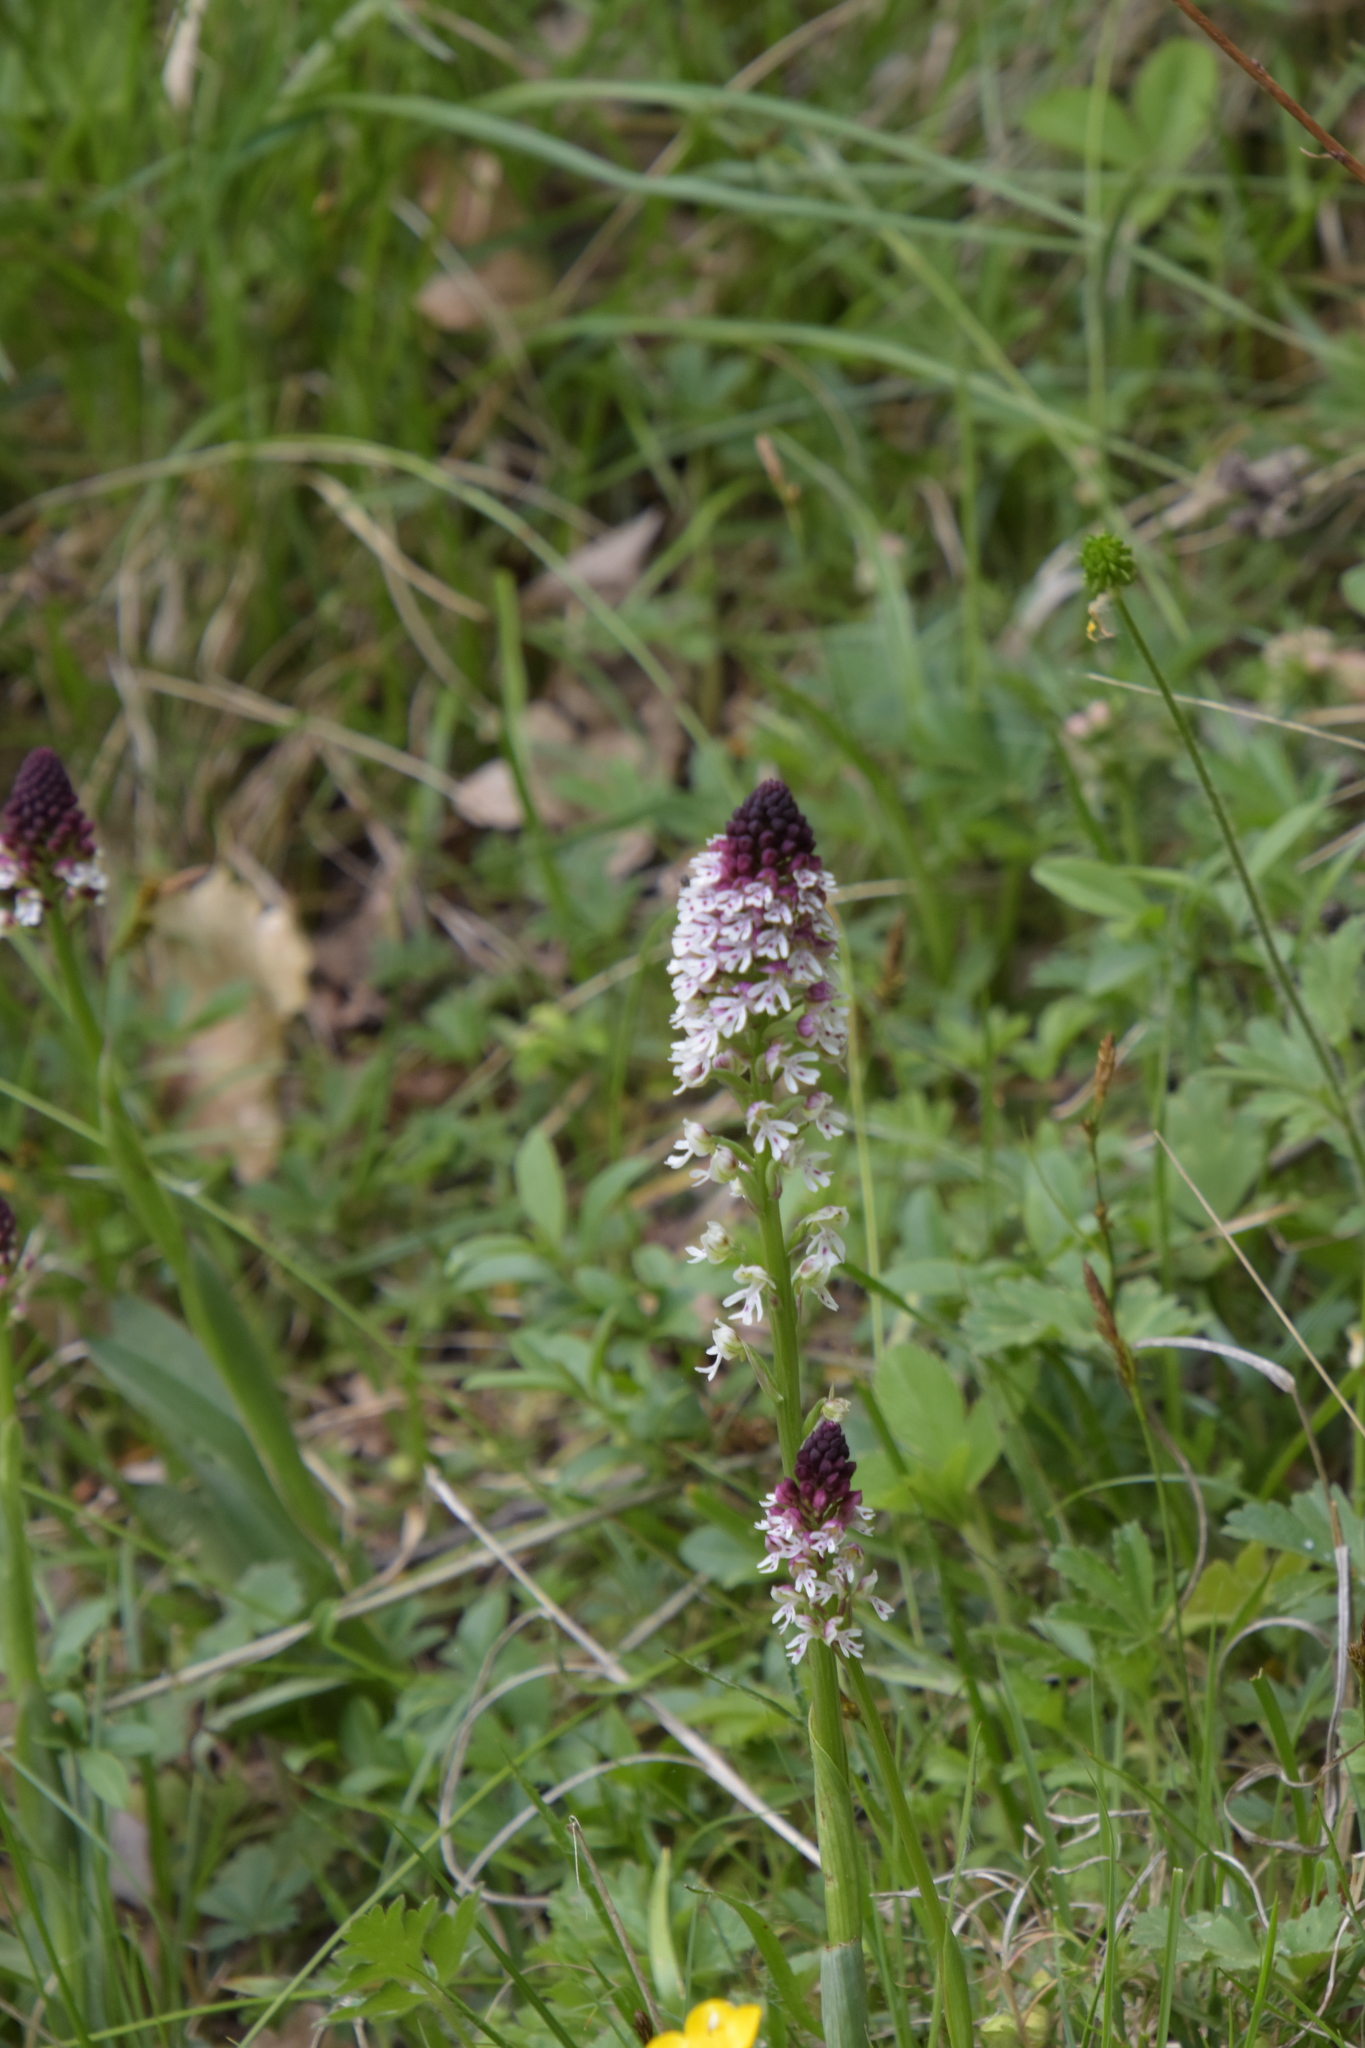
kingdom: Plantae
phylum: Tracheophyta
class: Liliopsida
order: Asparagales
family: Orchidaceae
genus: Neotinea
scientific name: Neotinea ustulata
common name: Burnt orchid
